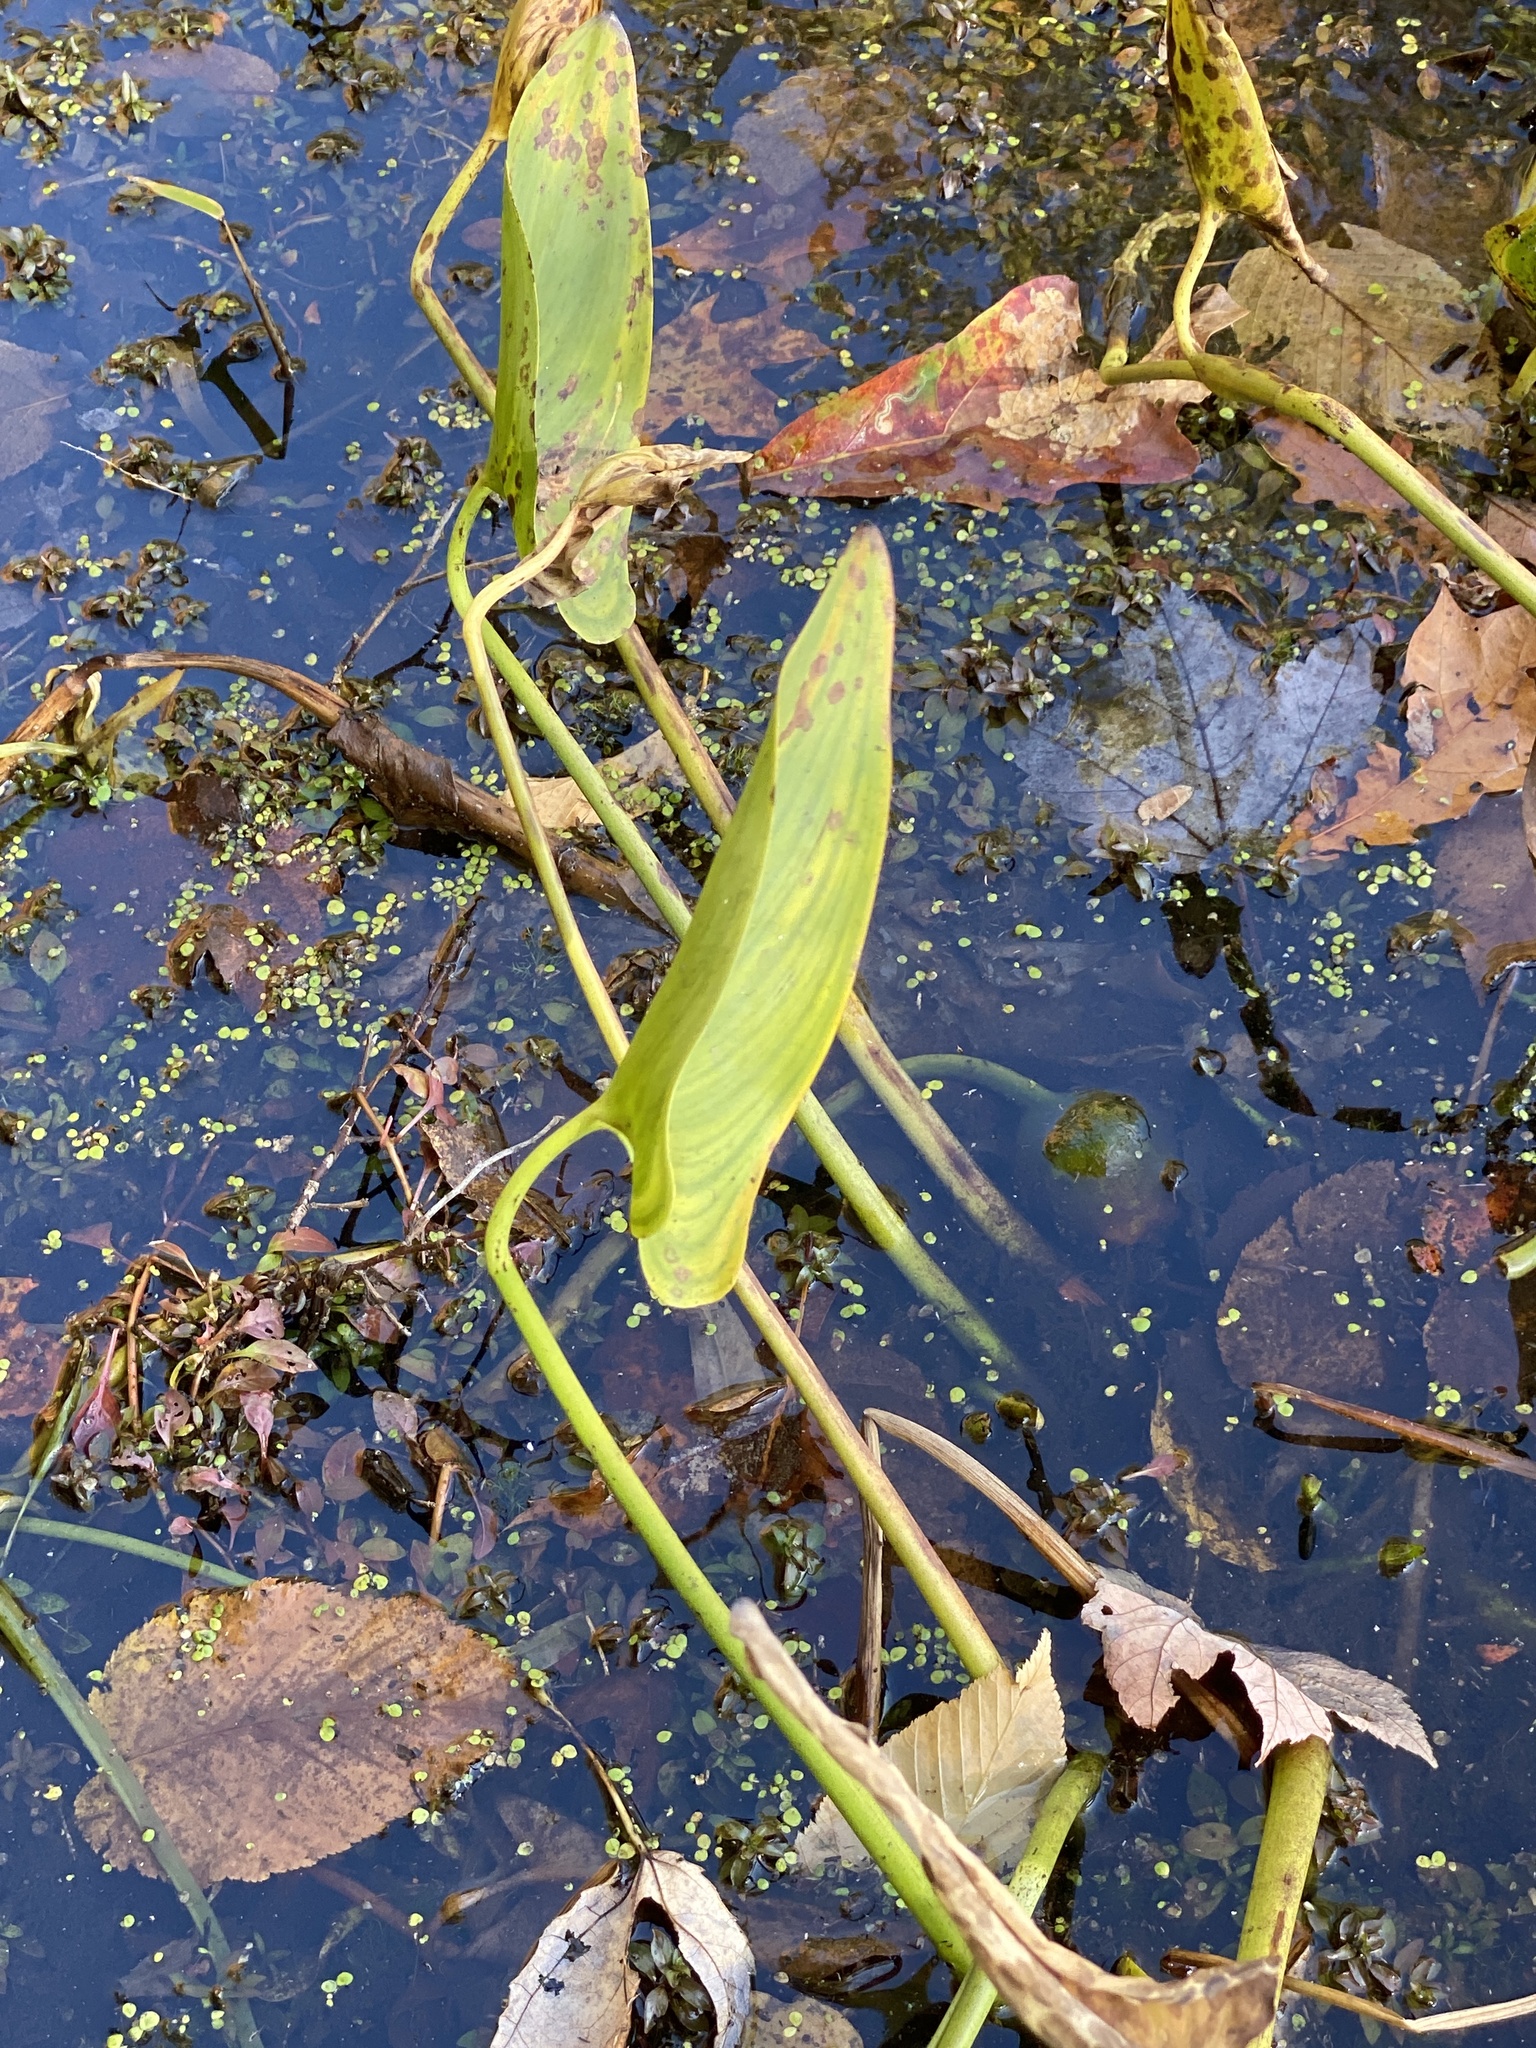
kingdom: Plantae
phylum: Tracheophyta
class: Liliopsida
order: Commelinales
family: Pontederiaceae
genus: Pontederia
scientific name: Pontederia cordata
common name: Pickerelweed
